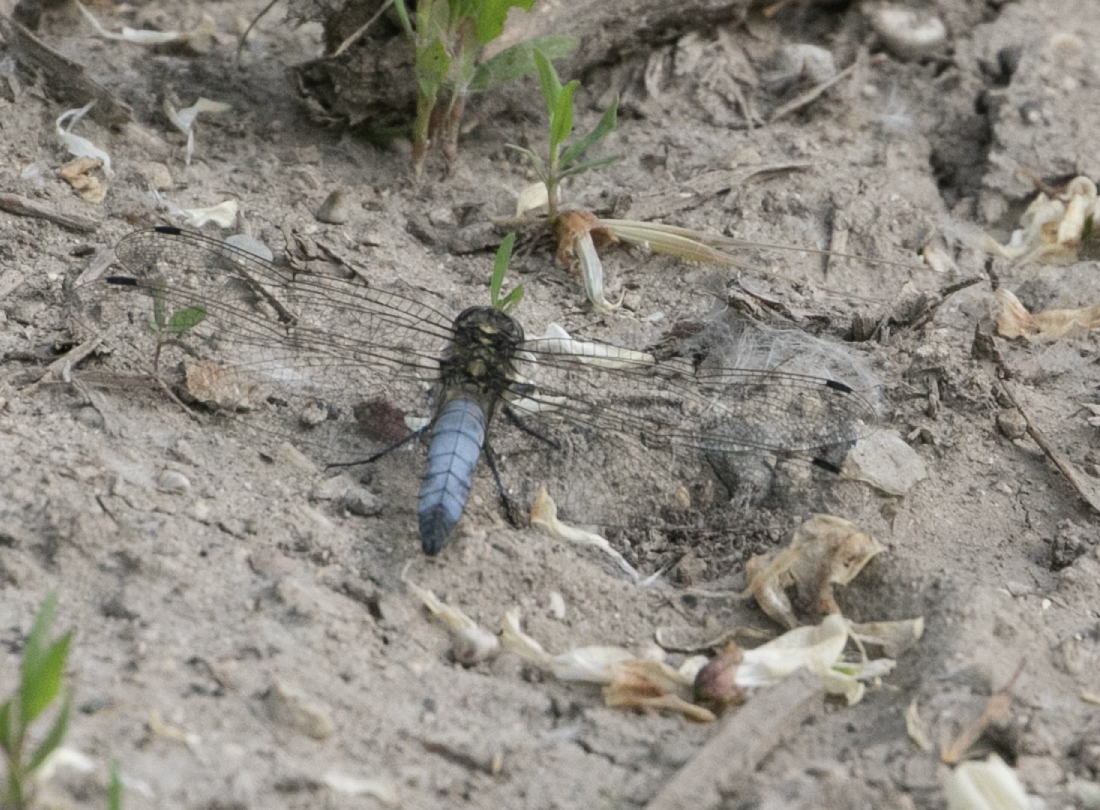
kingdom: Animalia
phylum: Arthropoda
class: Insecta
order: Odonata
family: Libellulidae
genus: Orthetrum
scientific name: Orthetrum cancellatum
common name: Black-tailed skimmer
